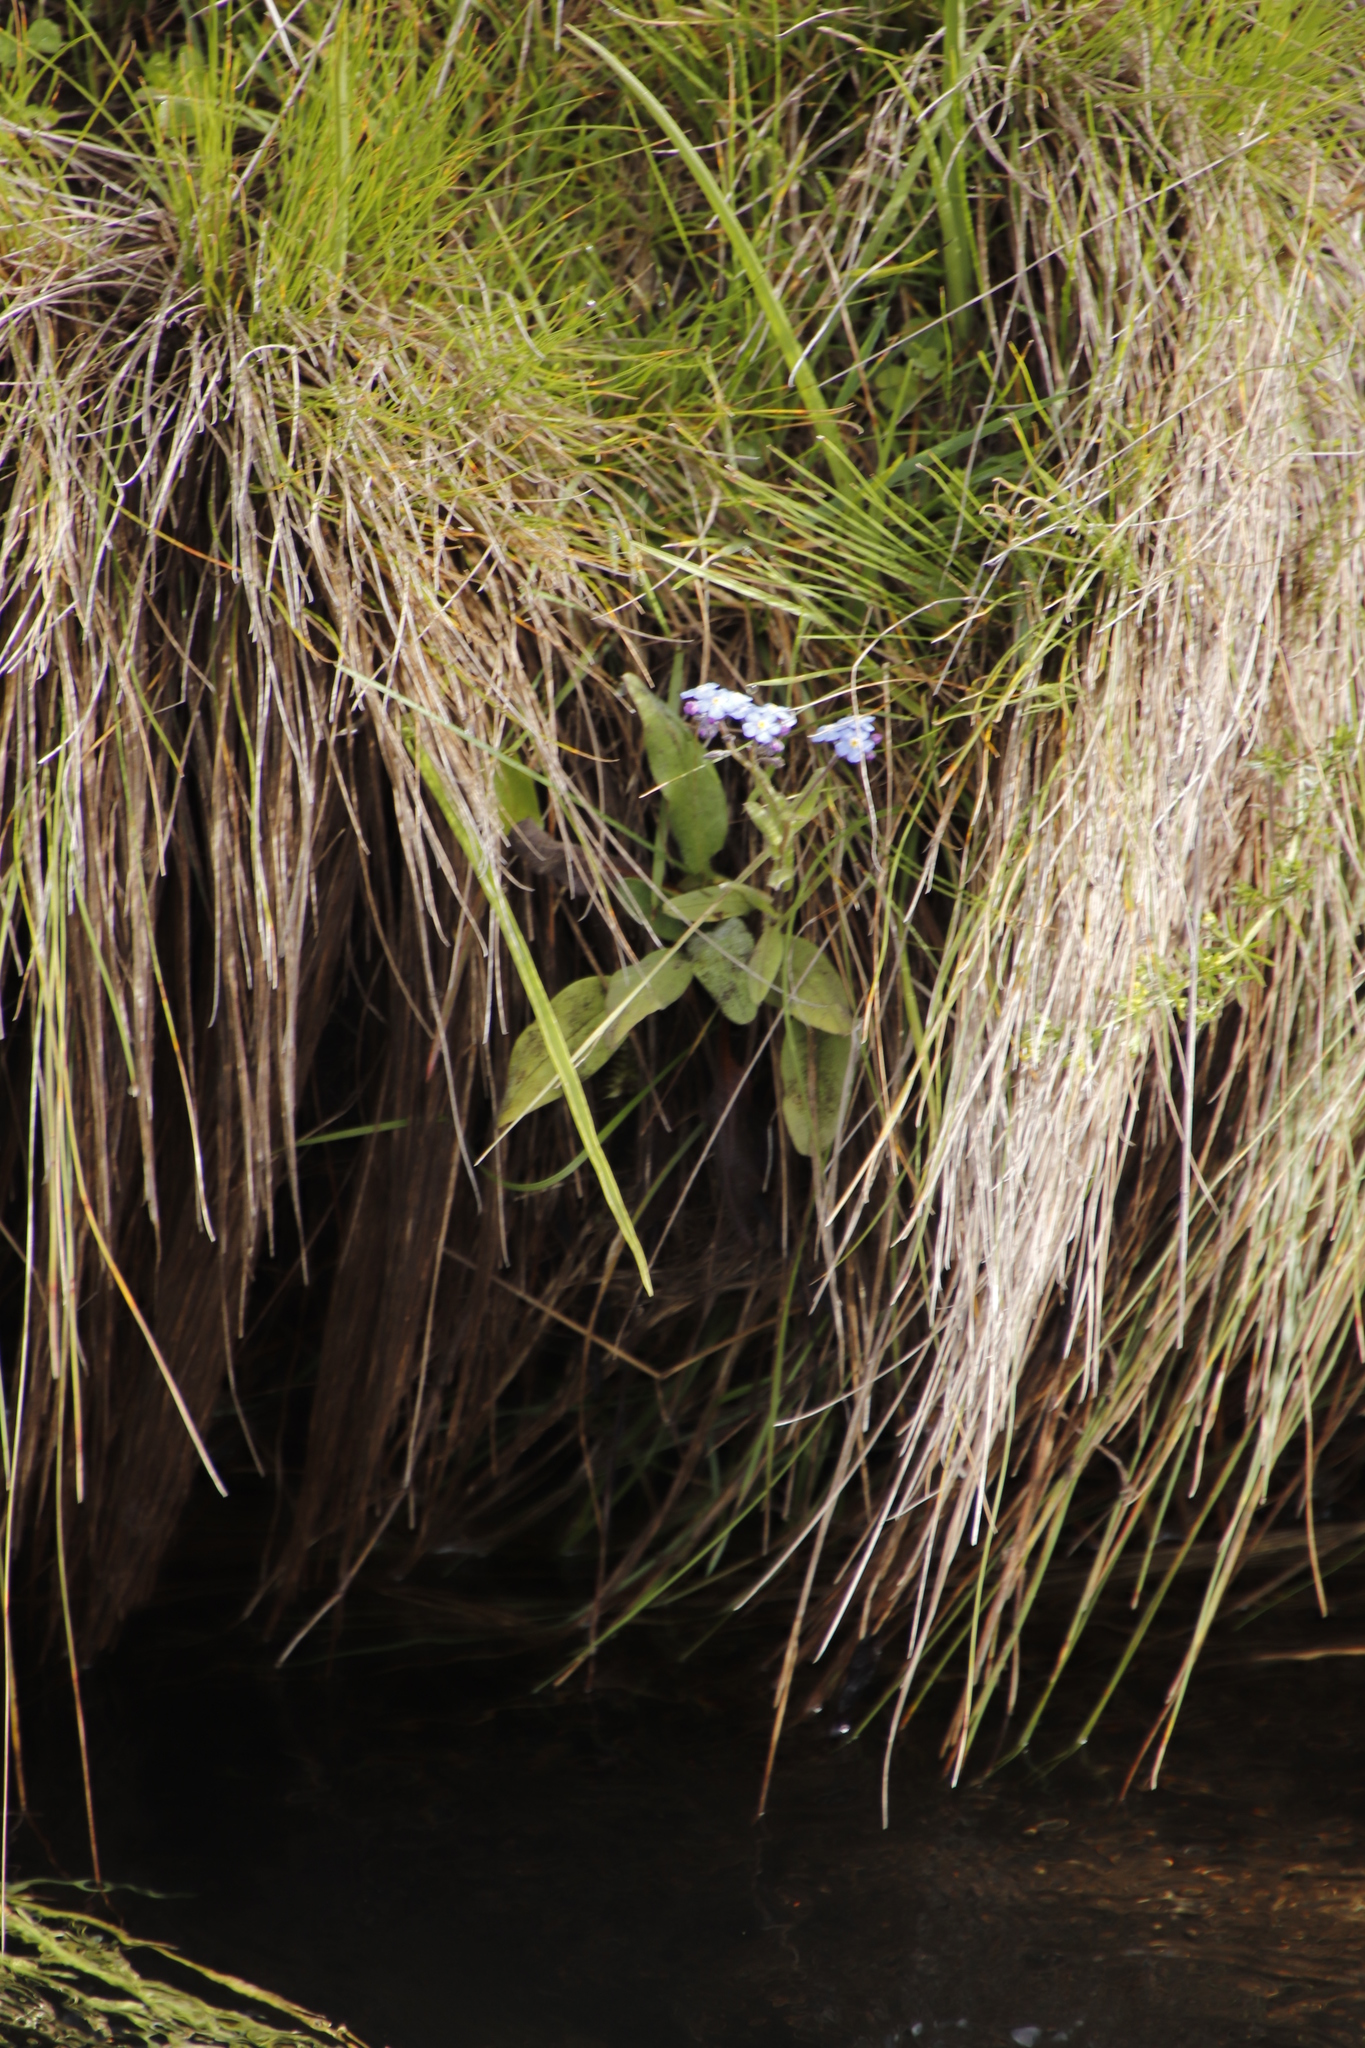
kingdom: Plantae
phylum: Tracheophyta
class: Magnoliopsida
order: Boraginales
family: Boraginaceae
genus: Myosotis
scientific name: Myosotis semiamplexicaulis
